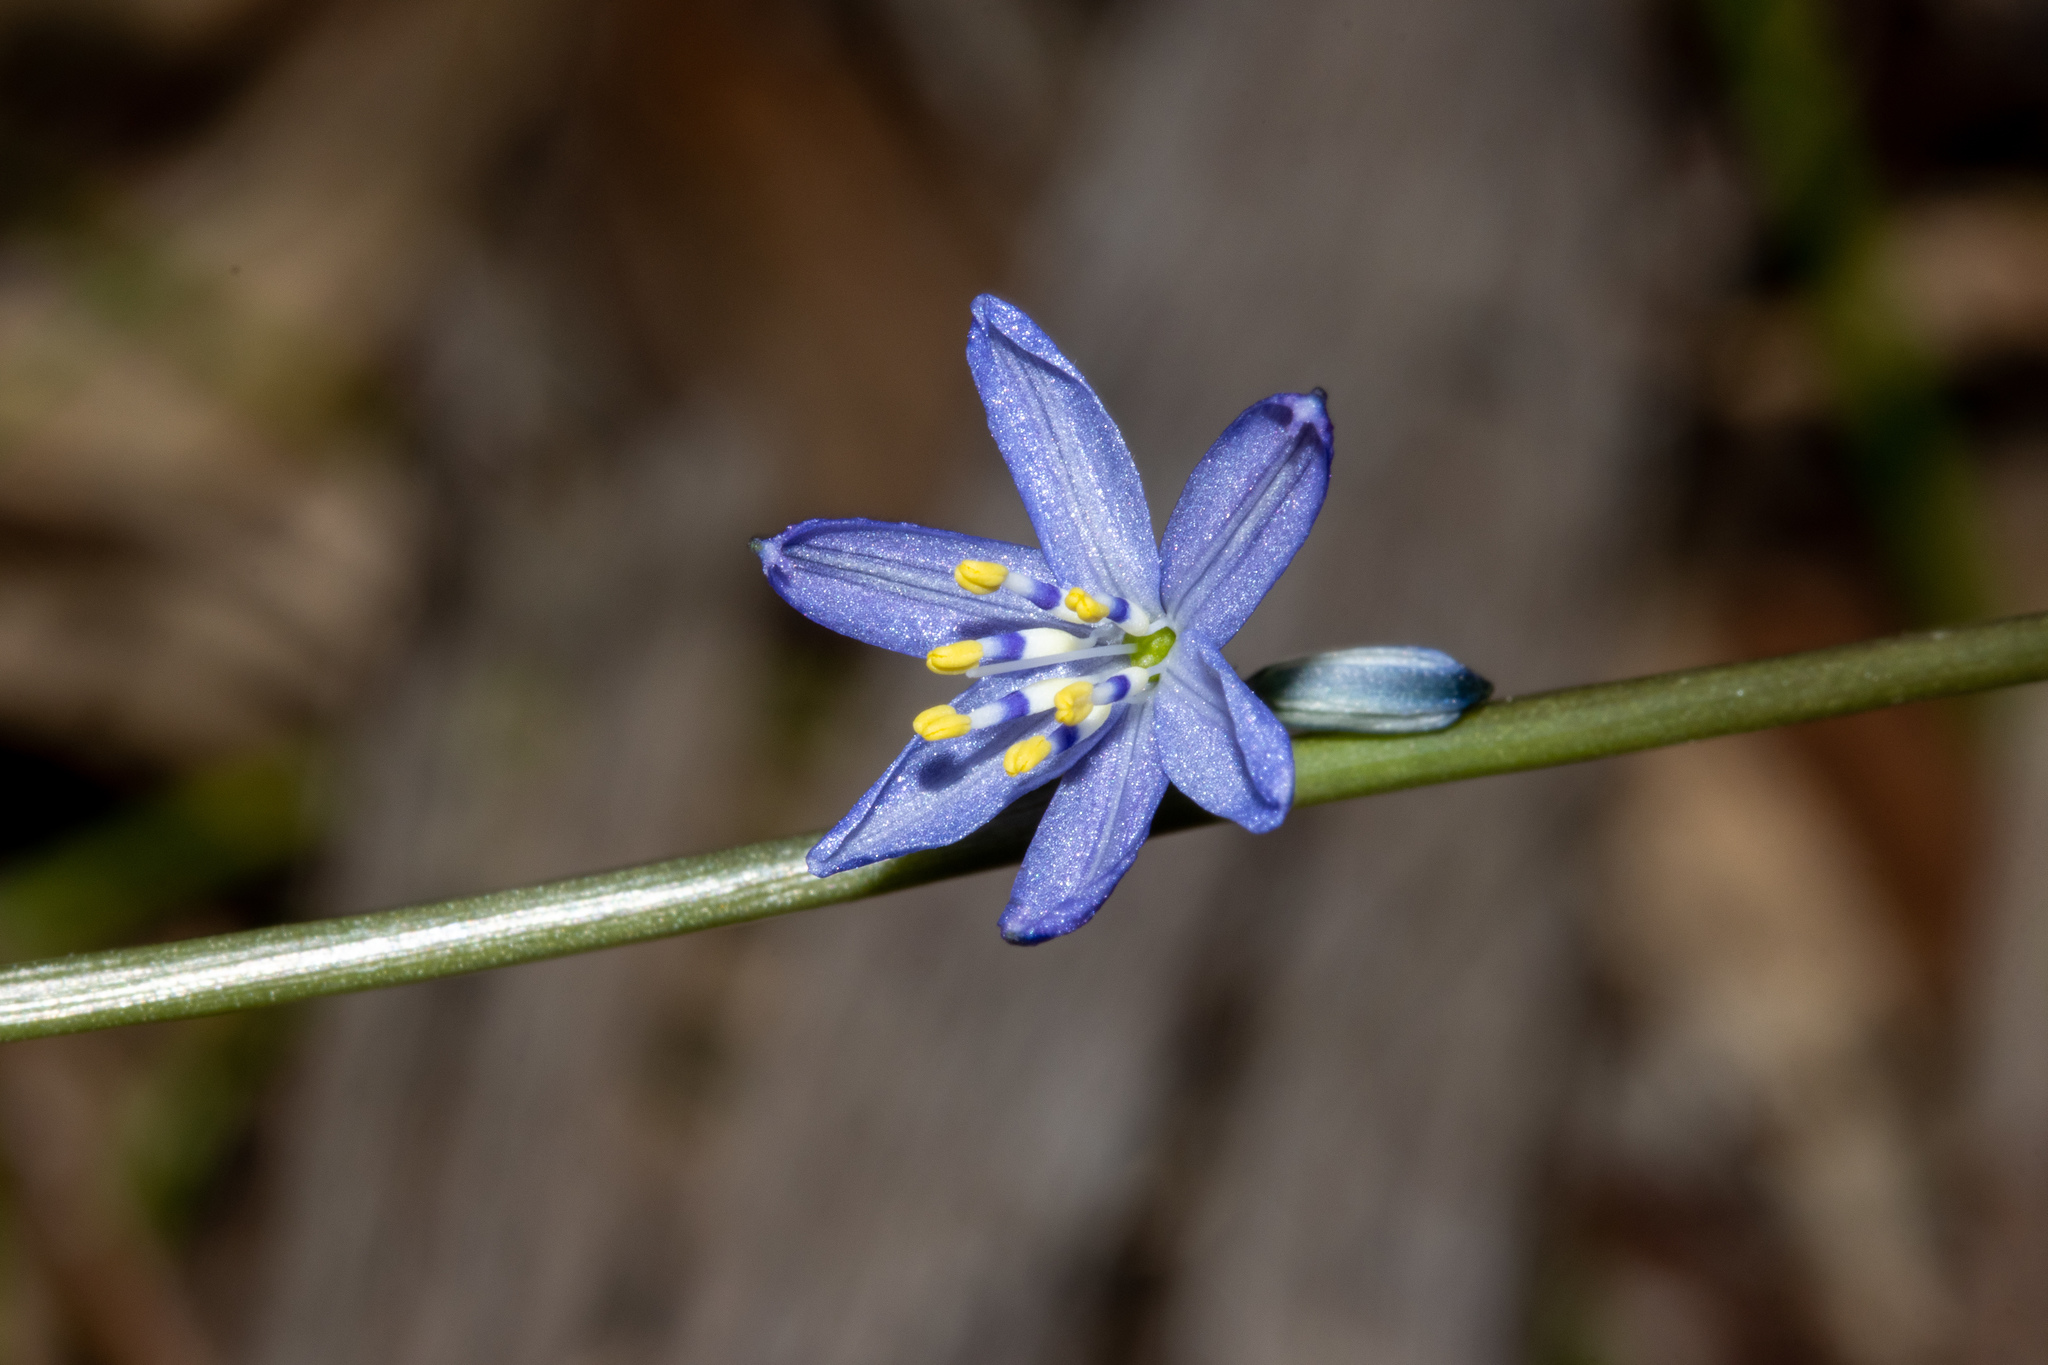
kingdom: Plantae
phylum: Tracheophyta
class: Liliopsida
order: Asparagales
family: Asphodelaceae
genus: Caesia
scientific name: Caesia calliantha
